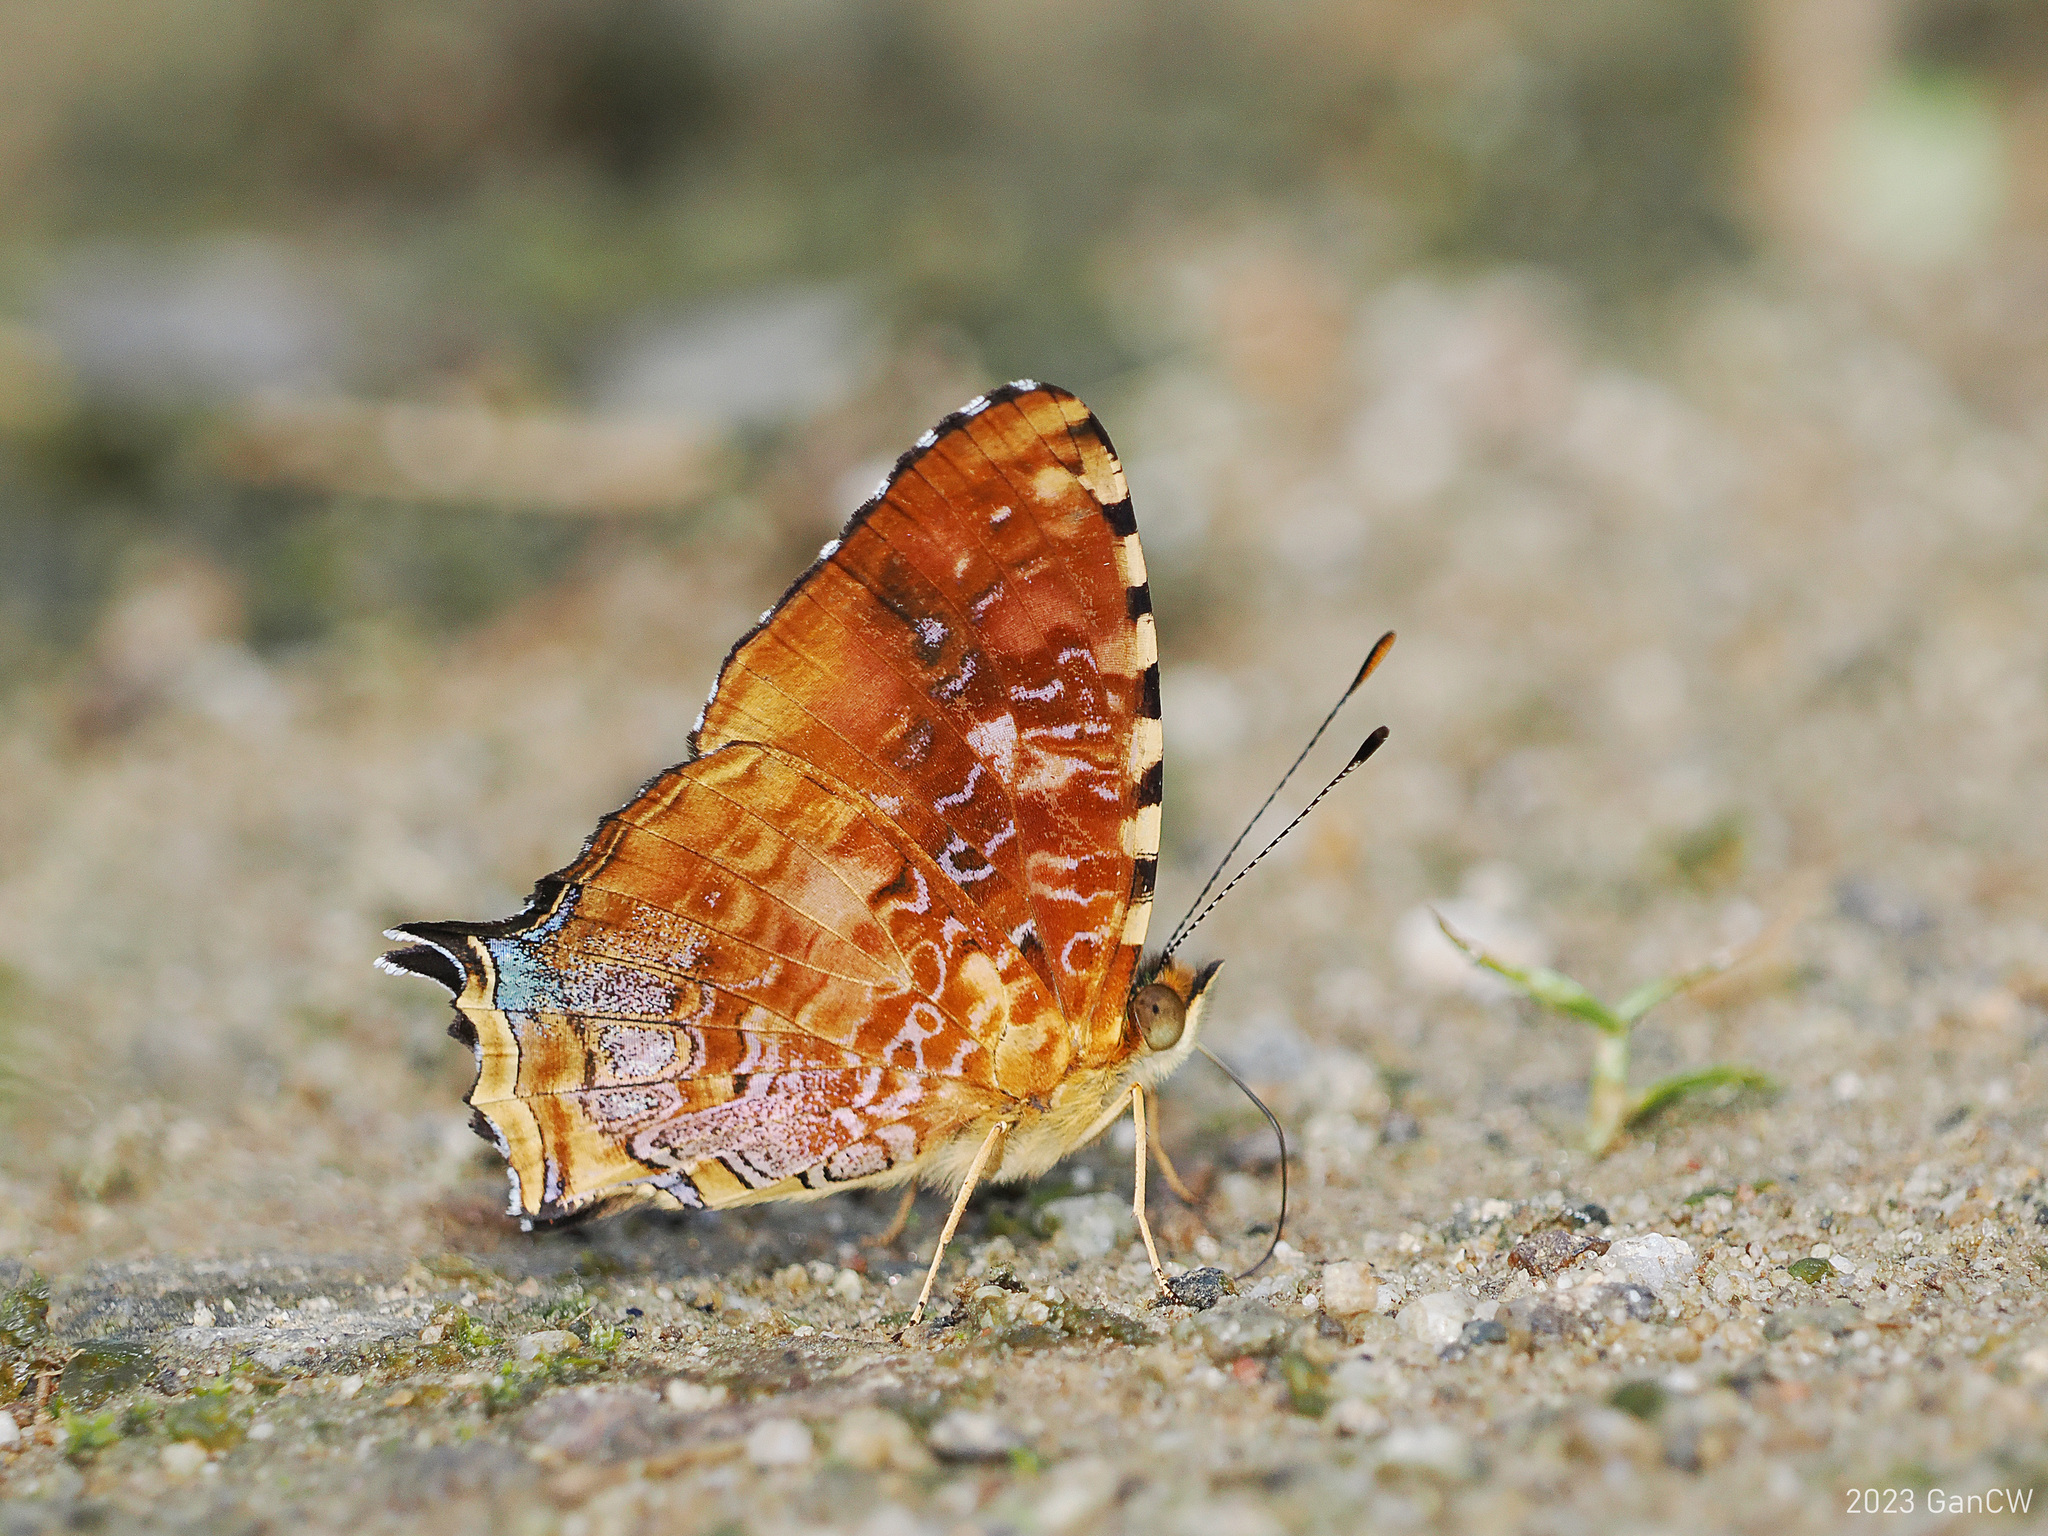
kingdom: Animalia
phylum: Arthropoda
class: Insecta
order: Lepidoptera
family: Nymphalidae
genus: Symbrenthia
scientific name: Symbrenthia platena
